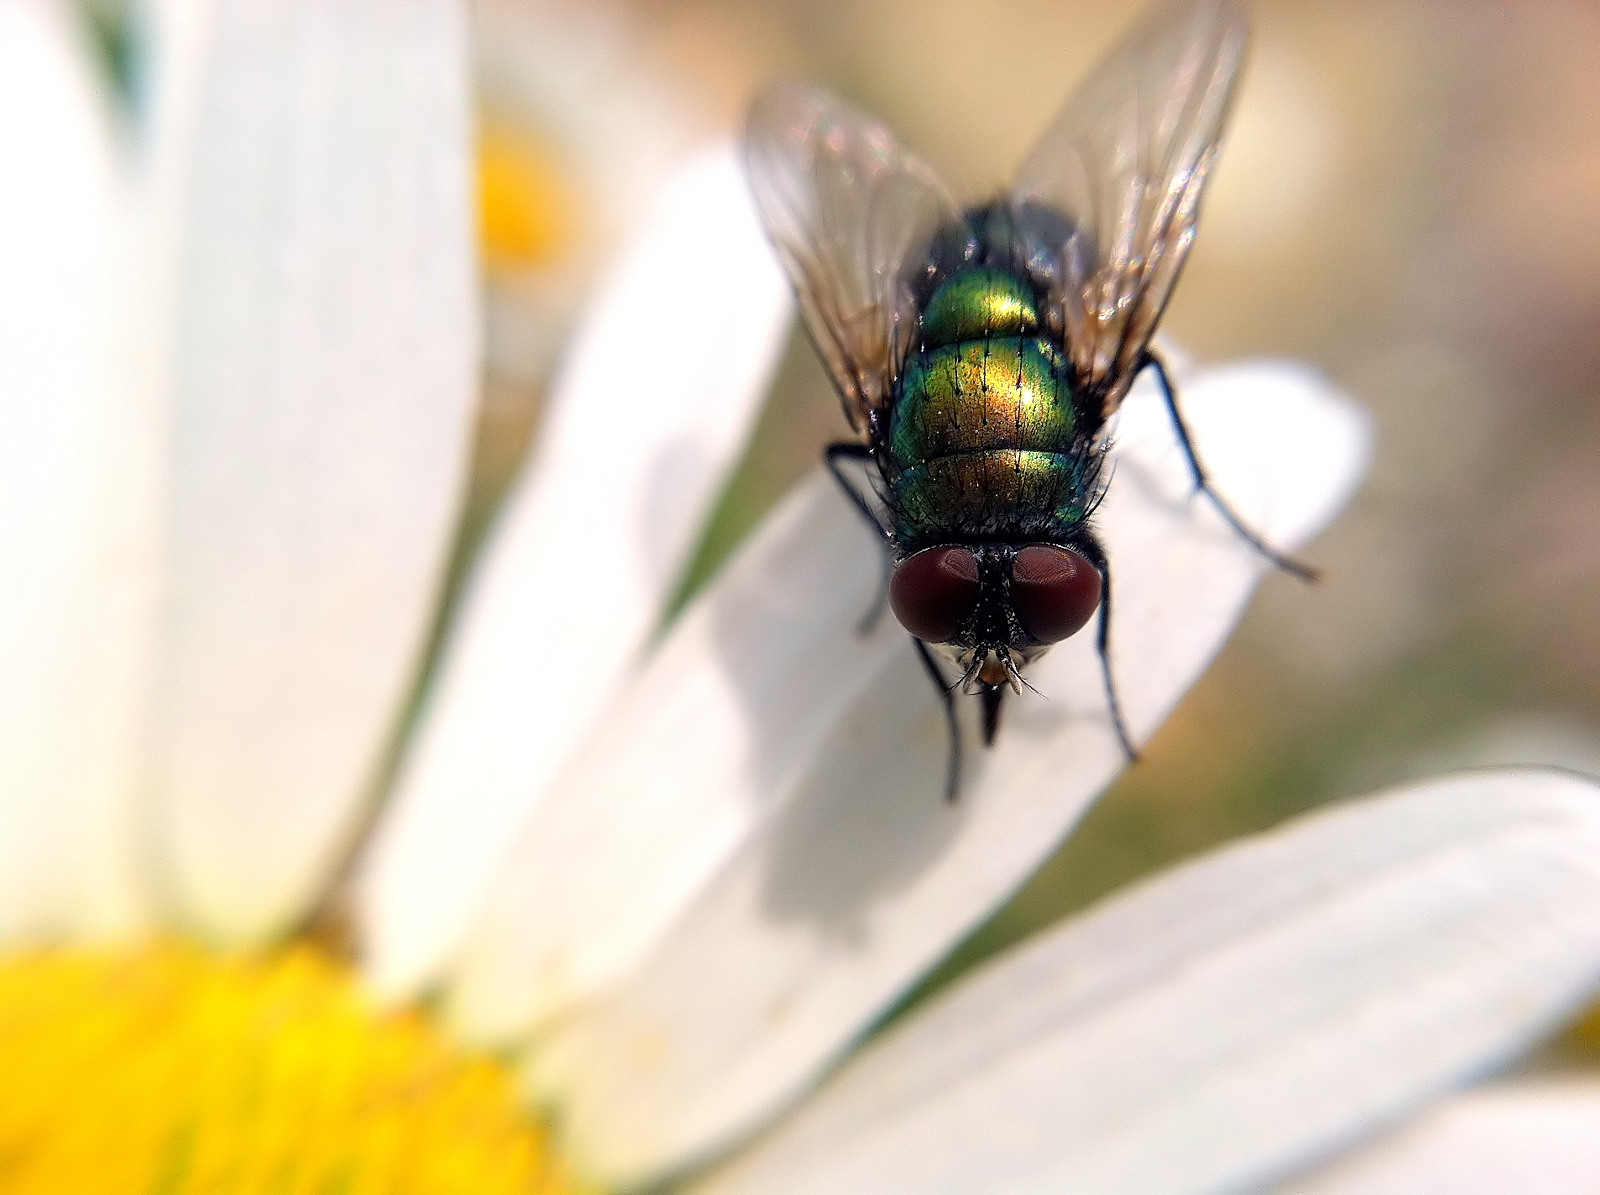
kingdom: Animalia
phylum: Arthropoda
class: Insecta
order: Diptera
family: Calliphoridae
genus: Lucilia
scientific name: Lucilia sericata
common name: Blow fly
